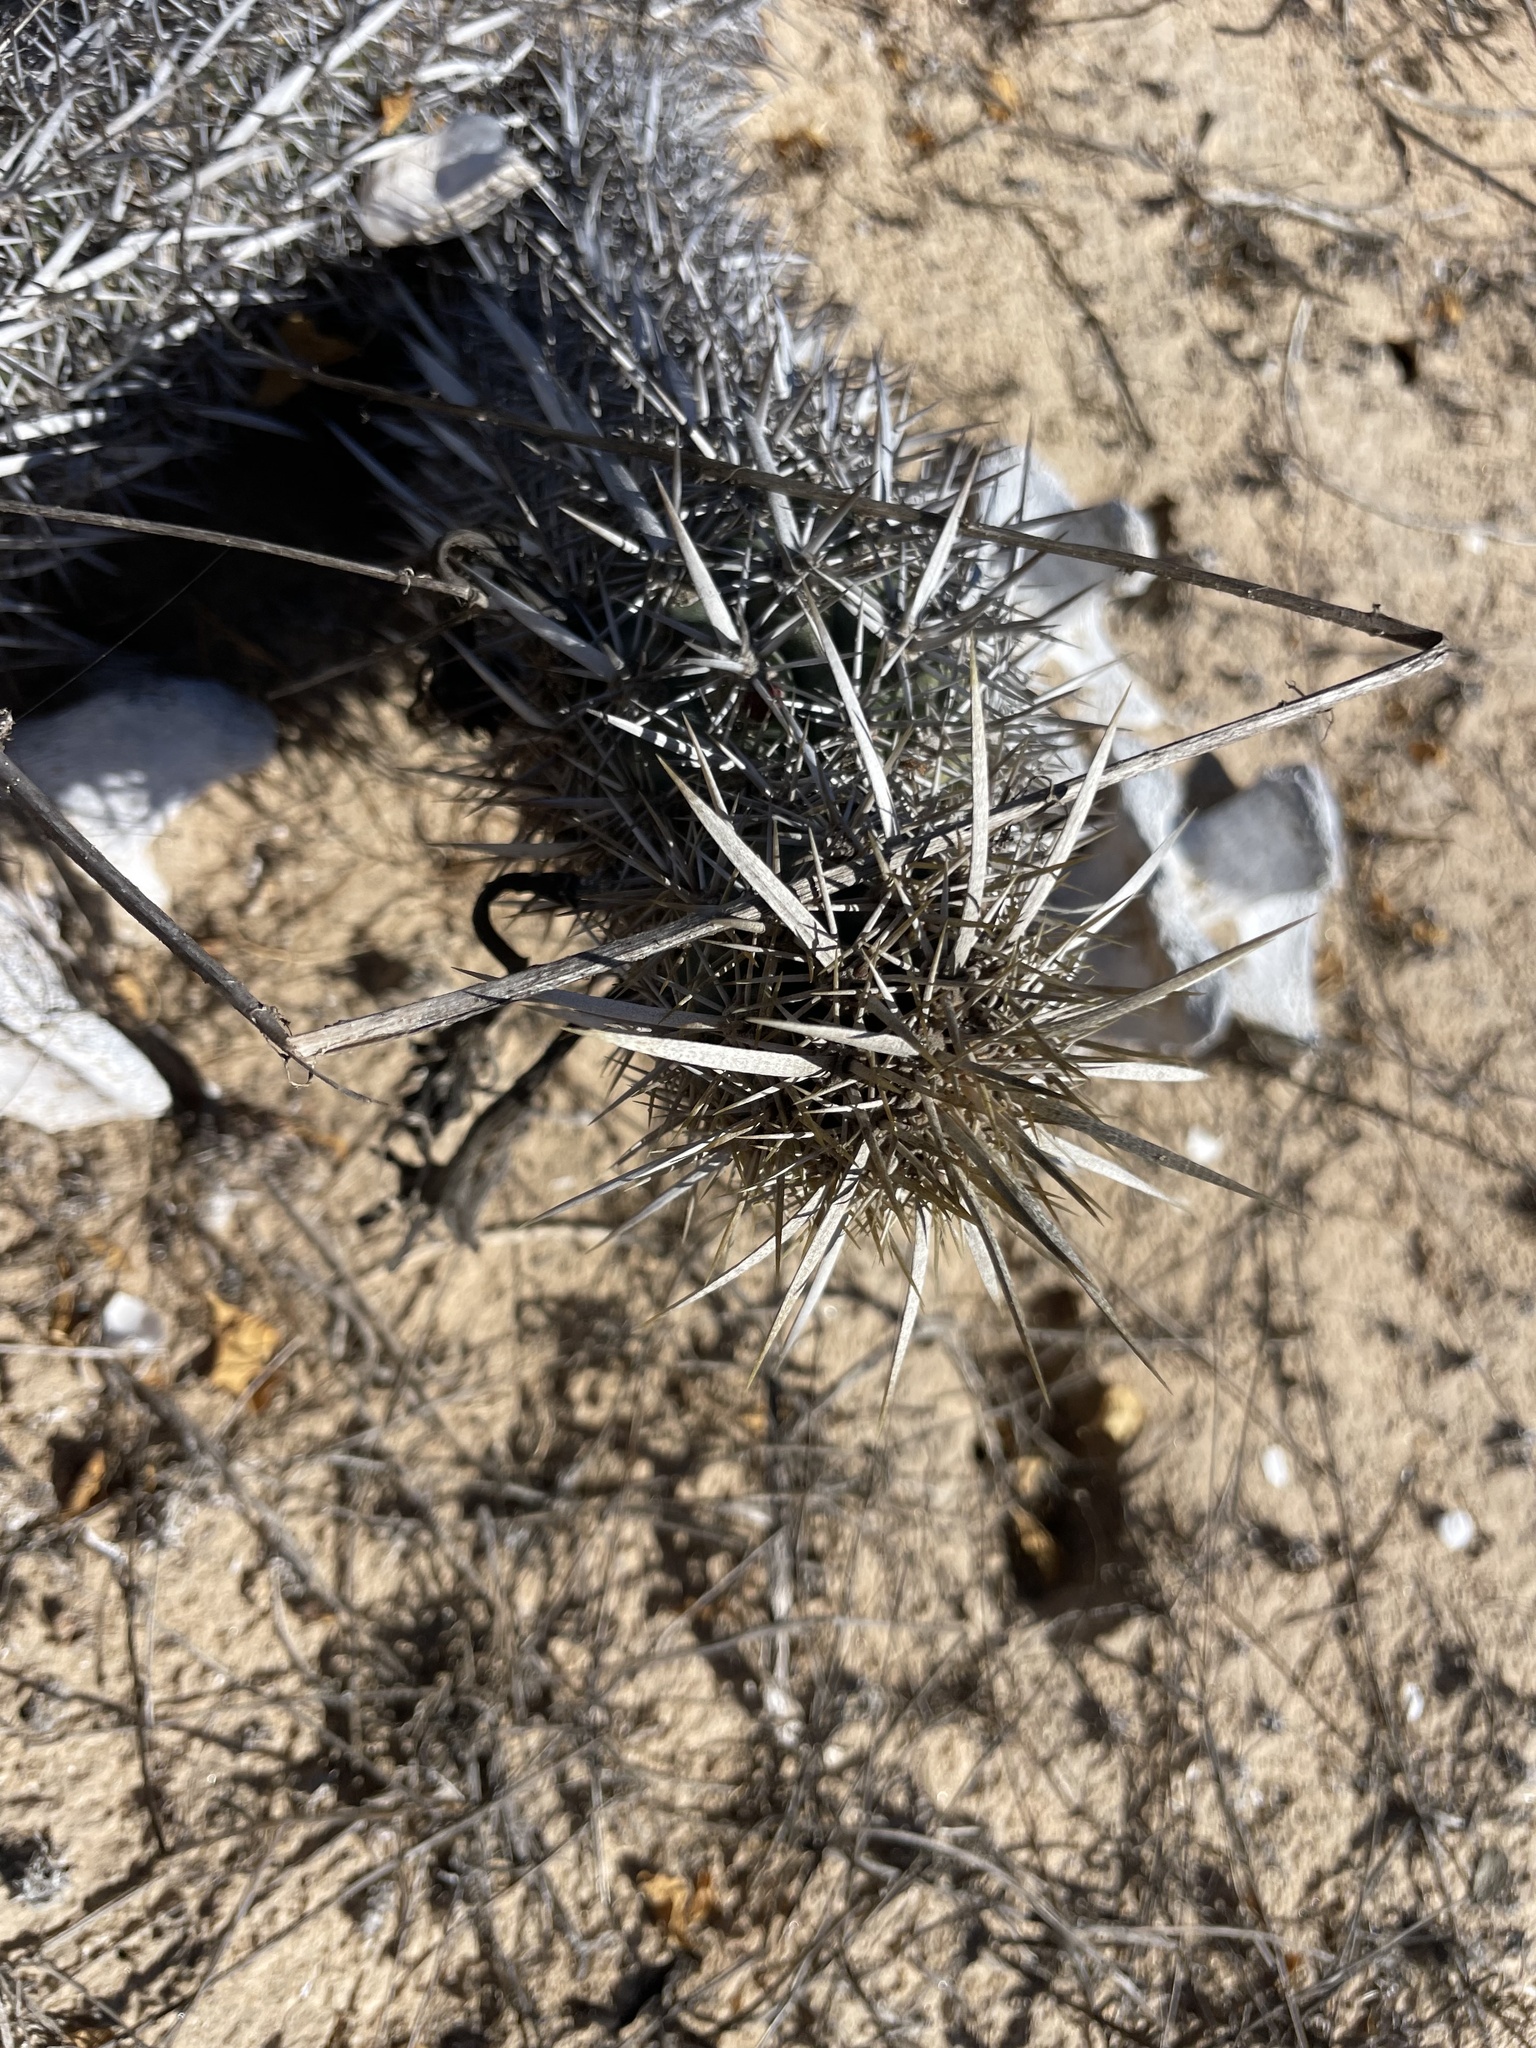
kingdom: Plantae
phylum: Tracheophyta
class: Magnoliopsida
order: Caryophyllales
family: Cactaceae
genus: Stenocereus
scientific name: Stenocereus eruca
